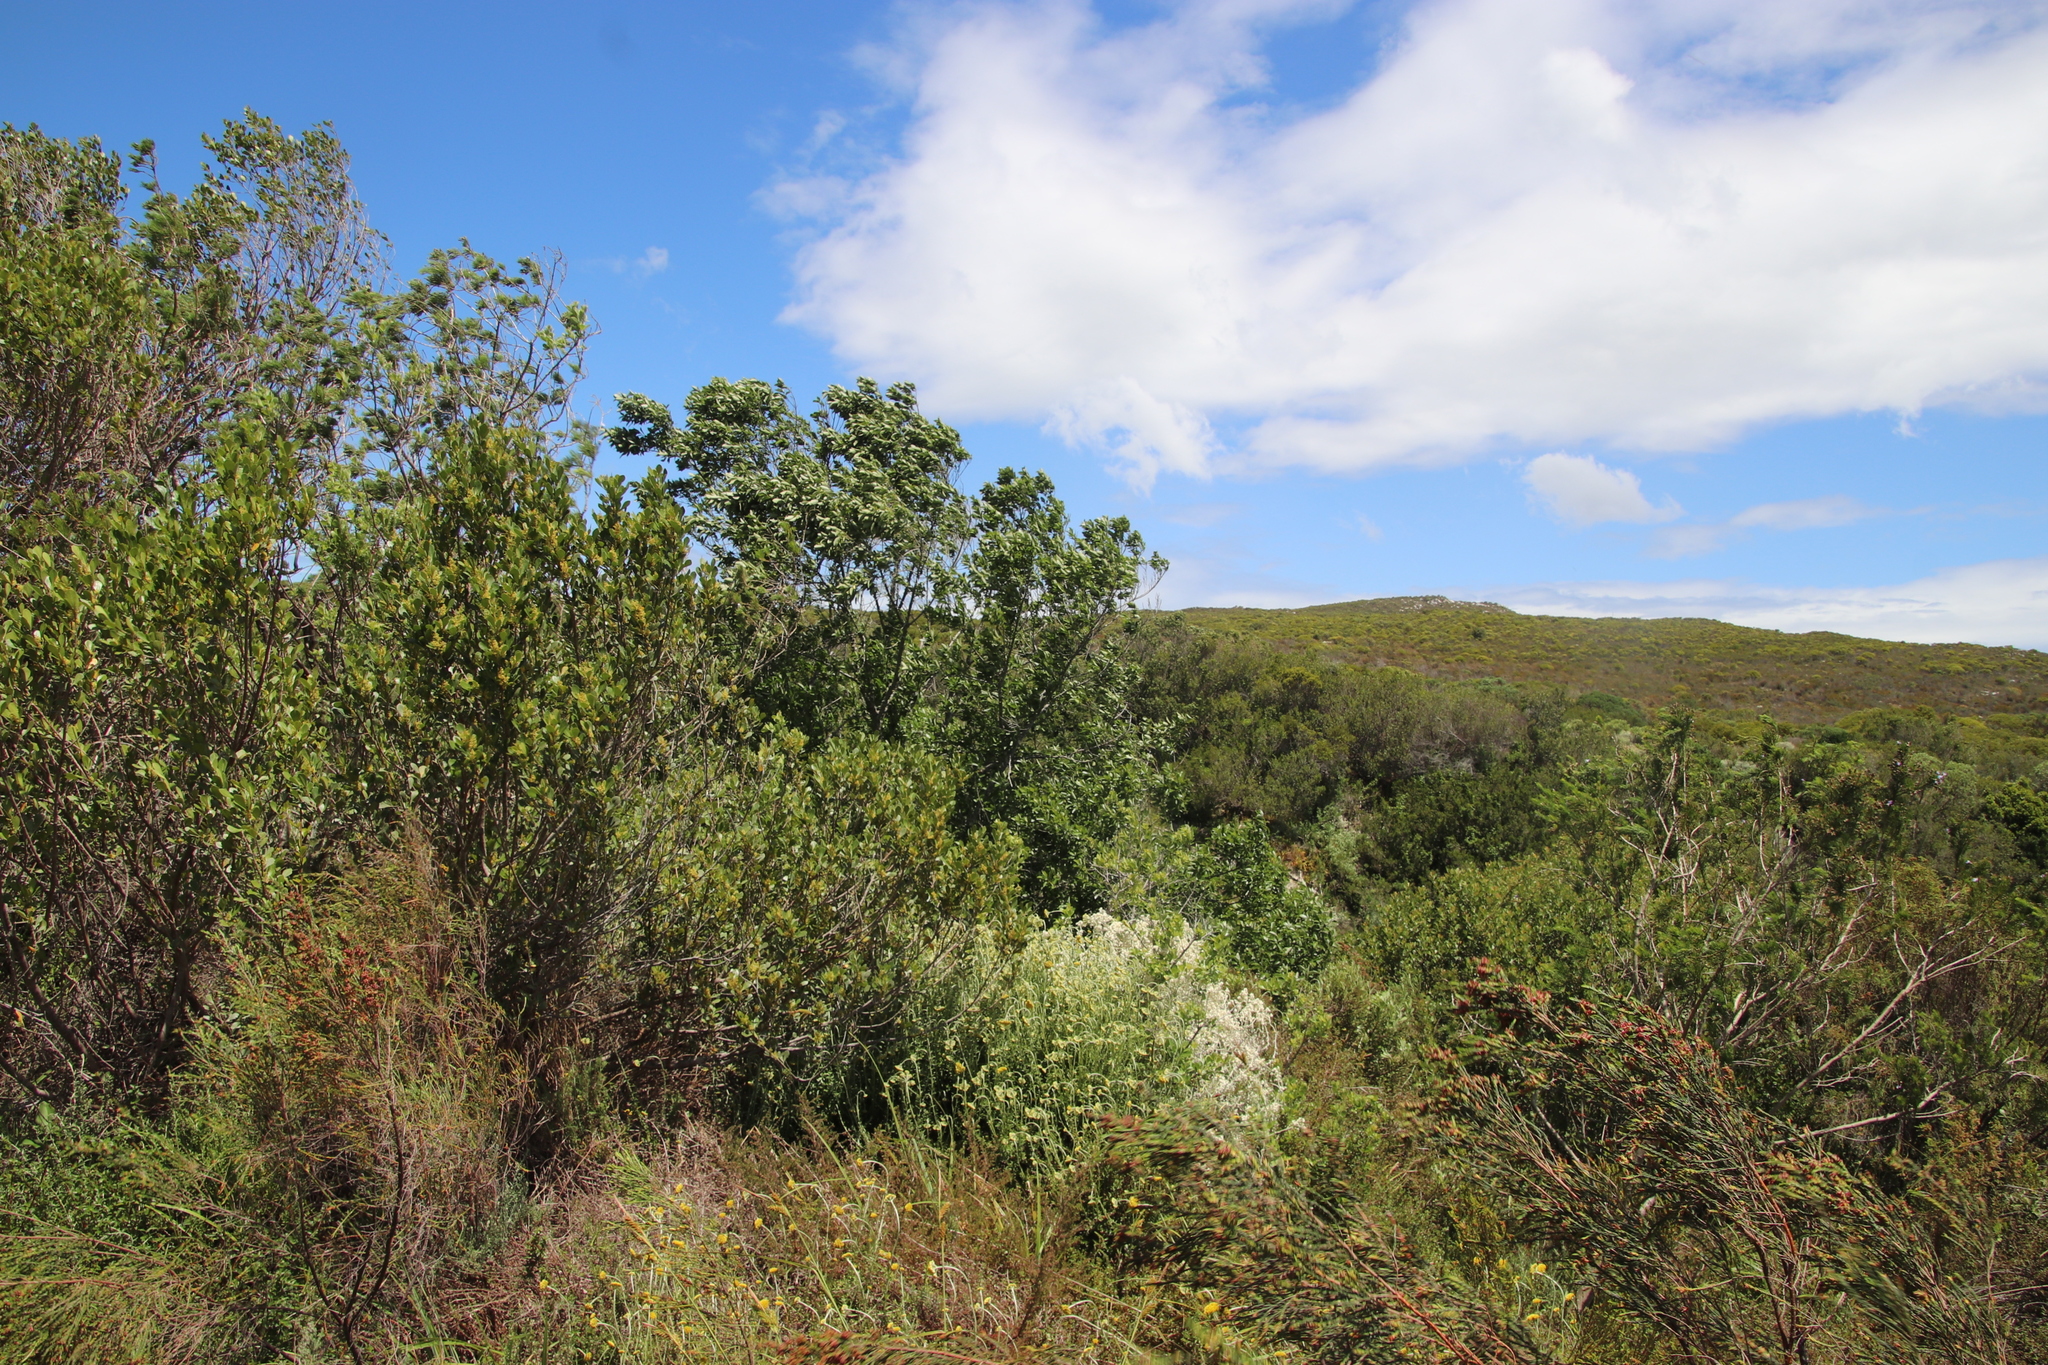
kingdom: Plantae
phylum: Tracheophyta
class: Magnoliopsida
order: Malpighiales
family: Achariaceae
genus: Kiggelaria
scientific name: Kiggelaria africana
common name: Wild peach
